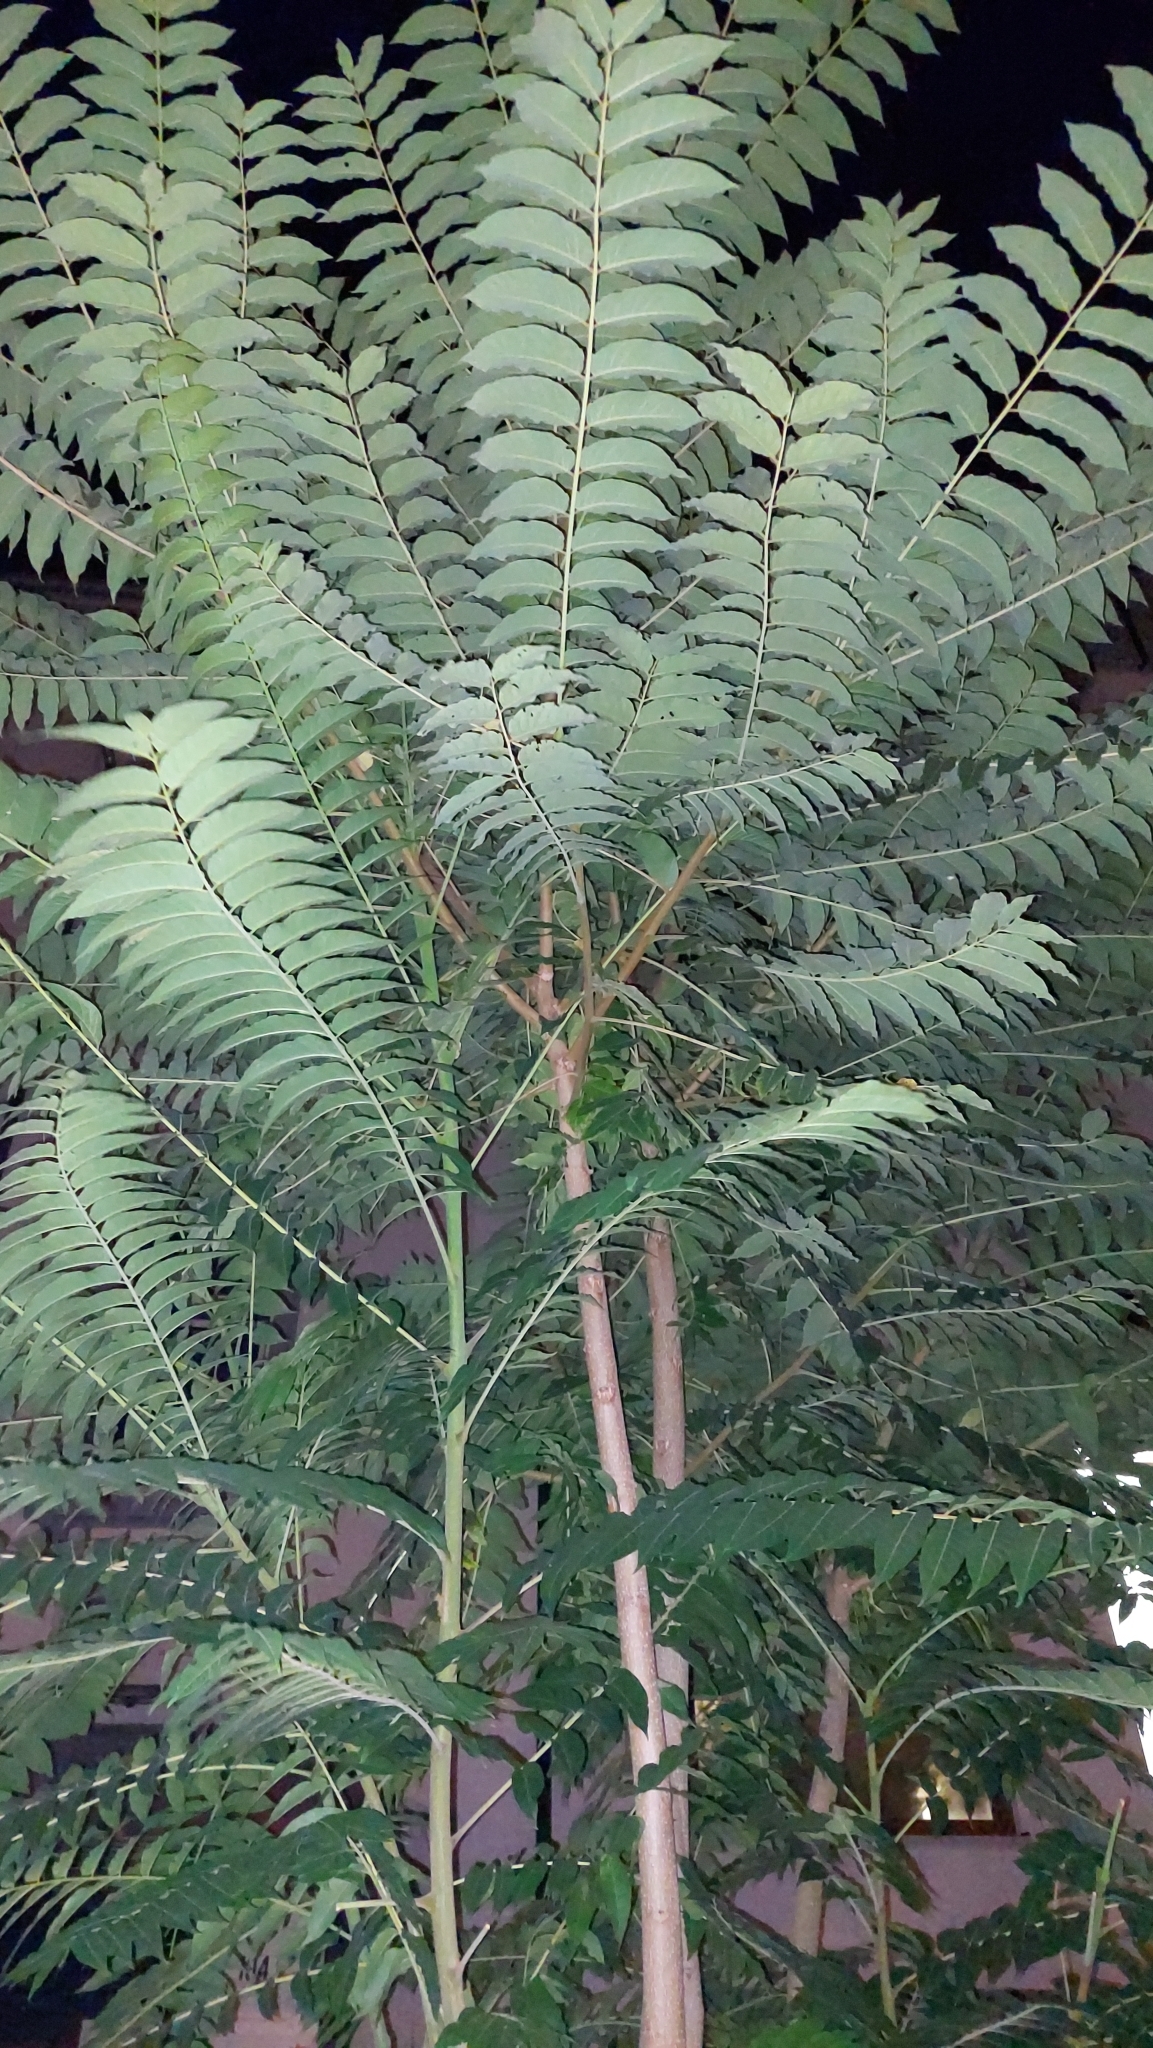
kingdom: Plantae
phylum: Tracheophyta
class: Magnoliopsida
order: Sapindales
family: Simaroubaceae
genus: Ailanthus
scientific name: Ailanthus altissima
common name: Tree-of-heaven
